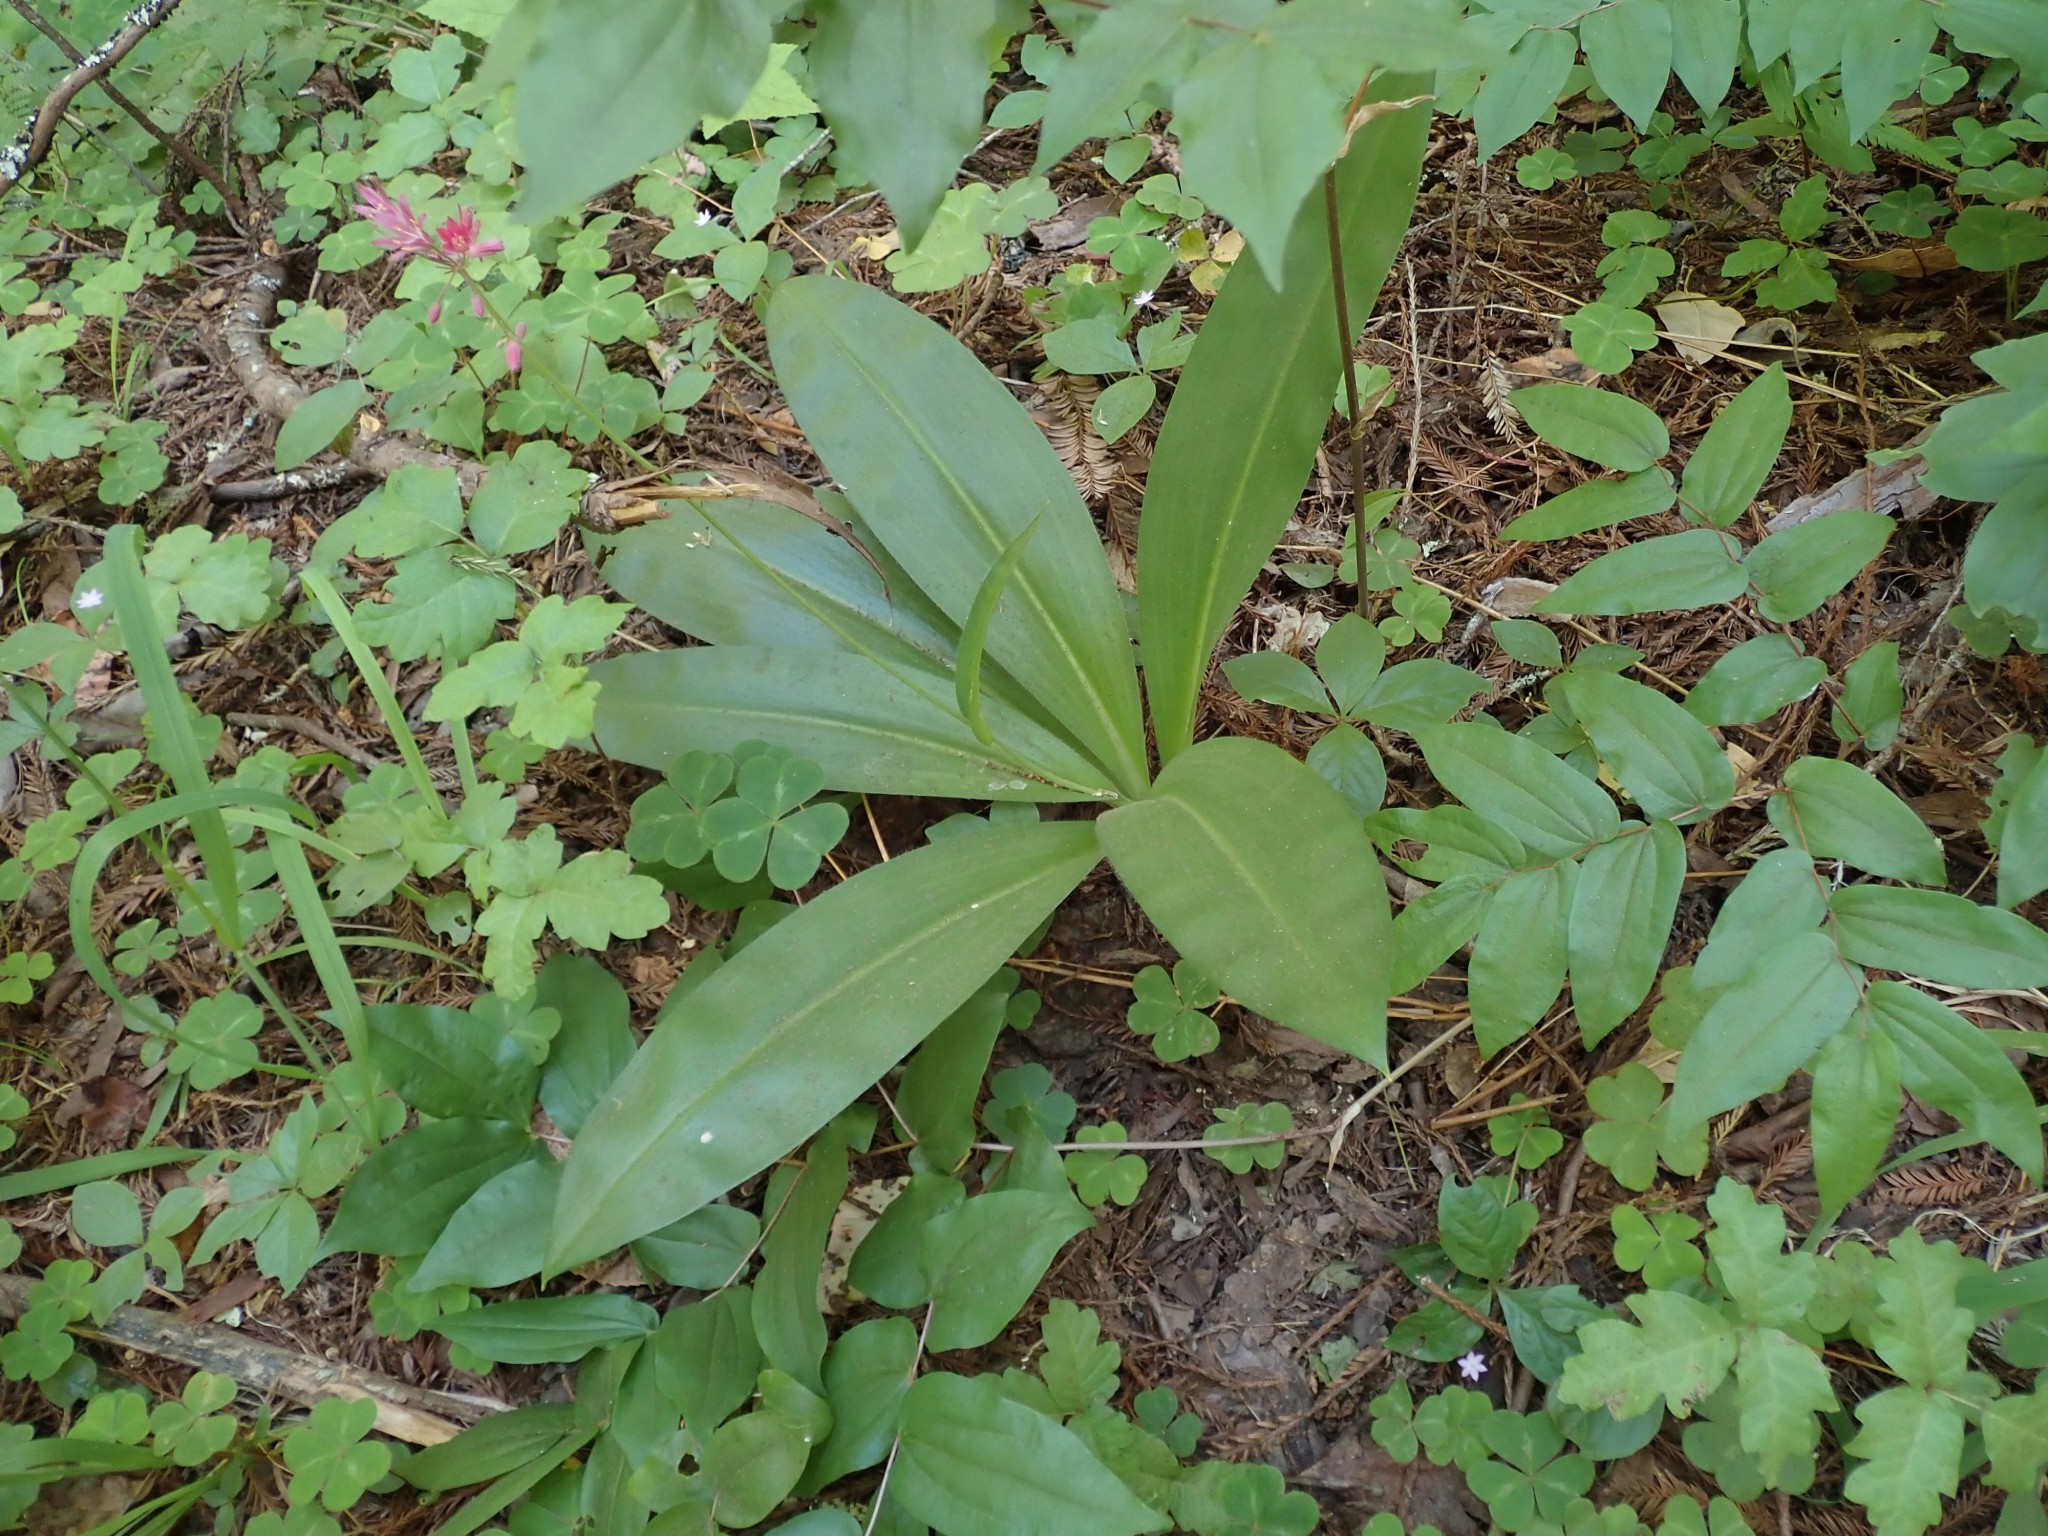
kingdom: Plantae
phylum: Tracheophyta
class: Liliopsida
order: Liliales
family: Liliaceae
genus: Clintonia
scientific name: Clintonia andrewsiana
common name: Red clintonia
